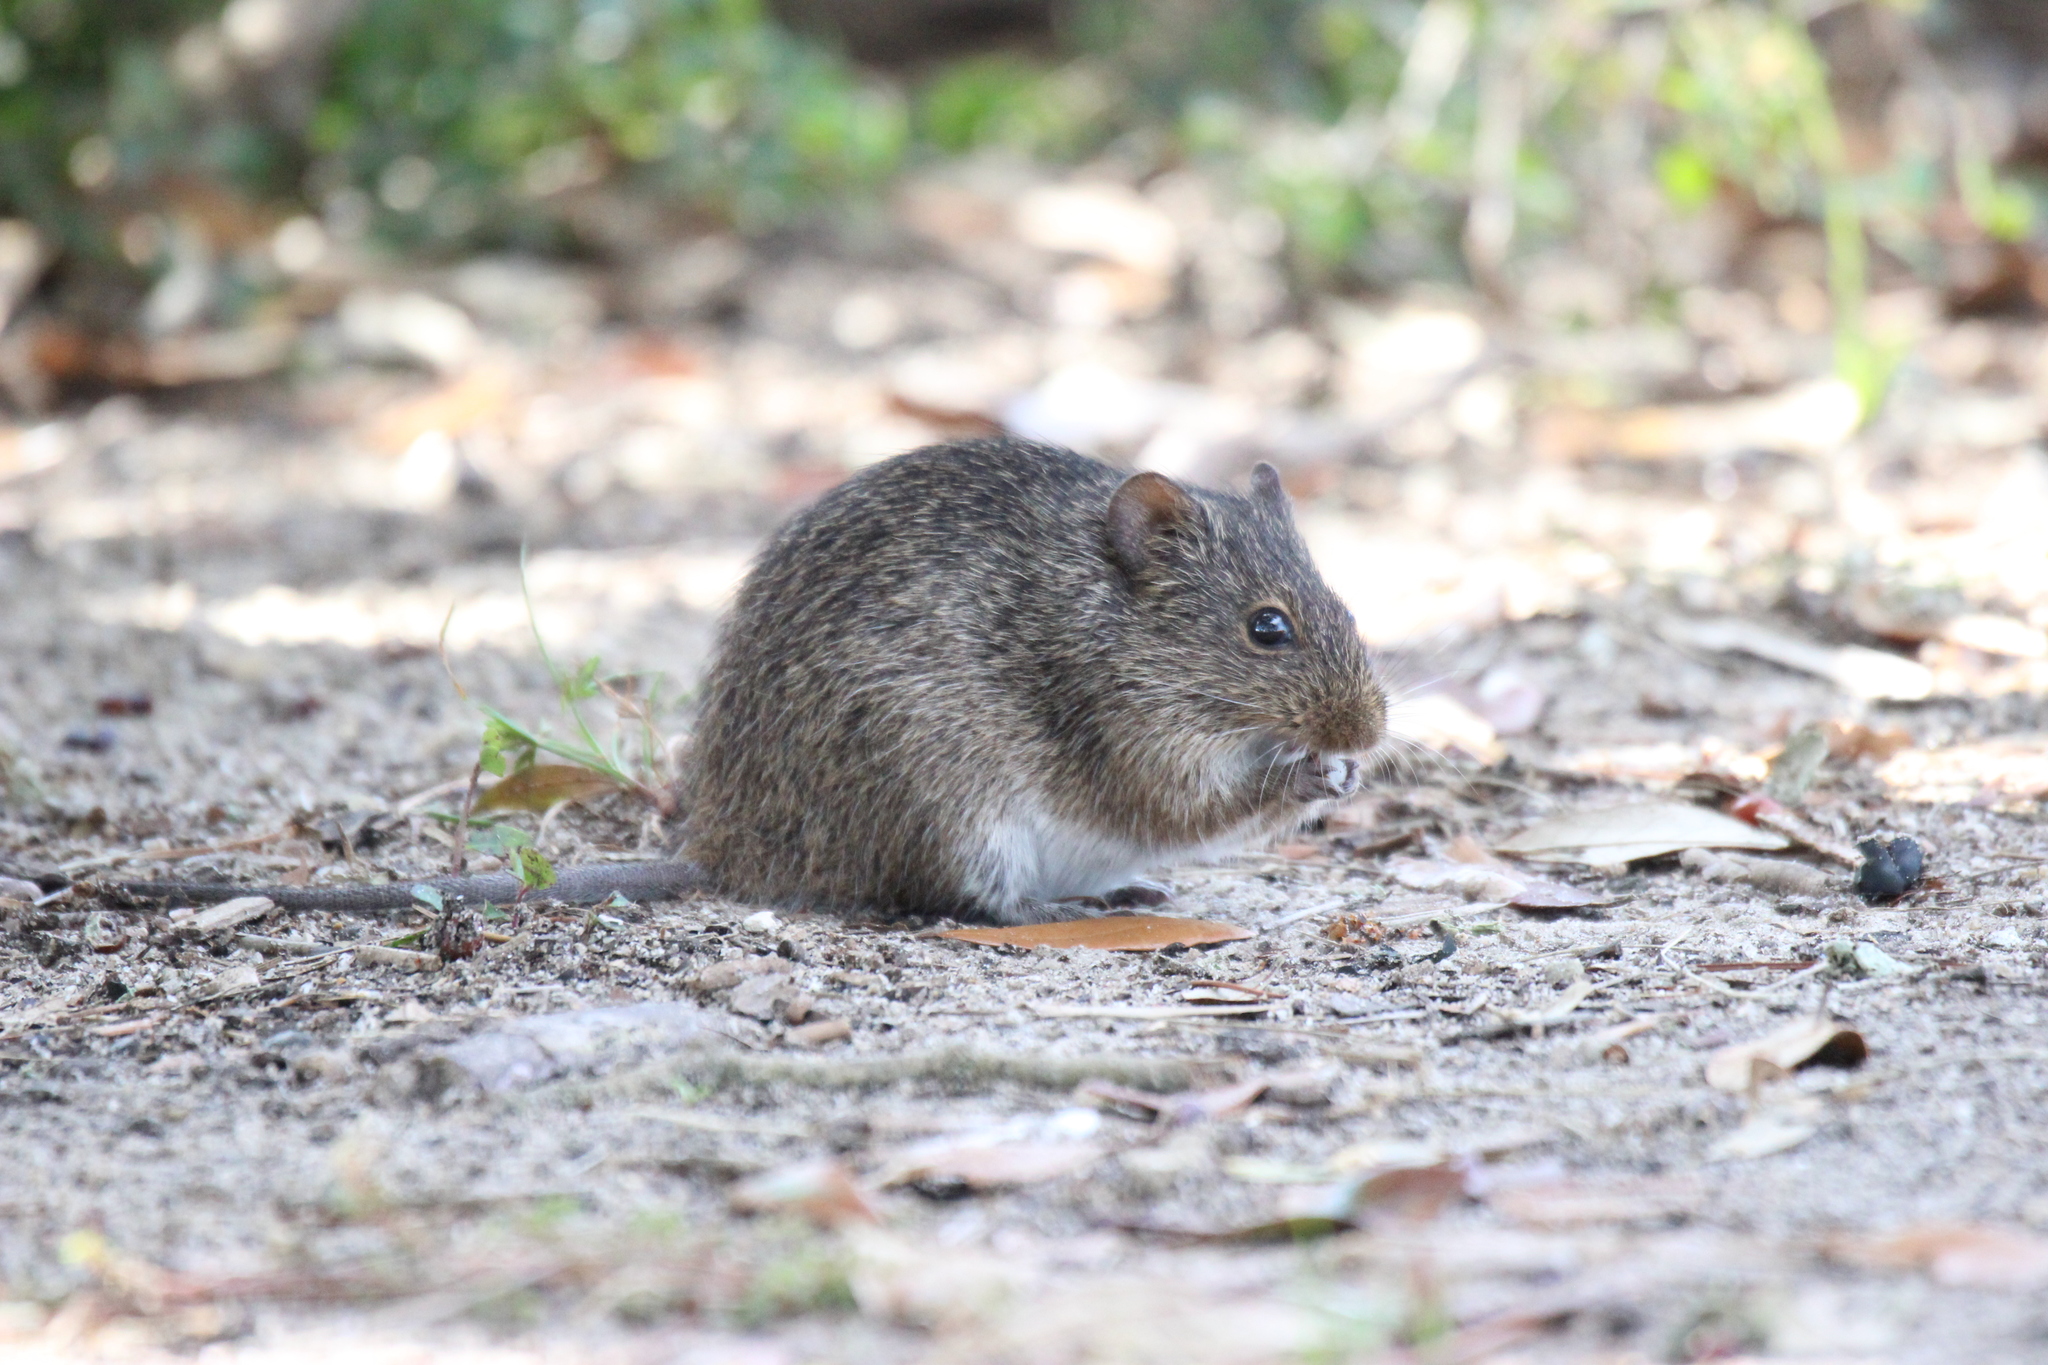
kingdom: Animalia
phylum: Chordata
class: Mammalia
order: Rodentia
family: Cricetidae
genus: Sigmodon
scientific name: Sigmodon hispidus
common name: Hispid cotton rat
